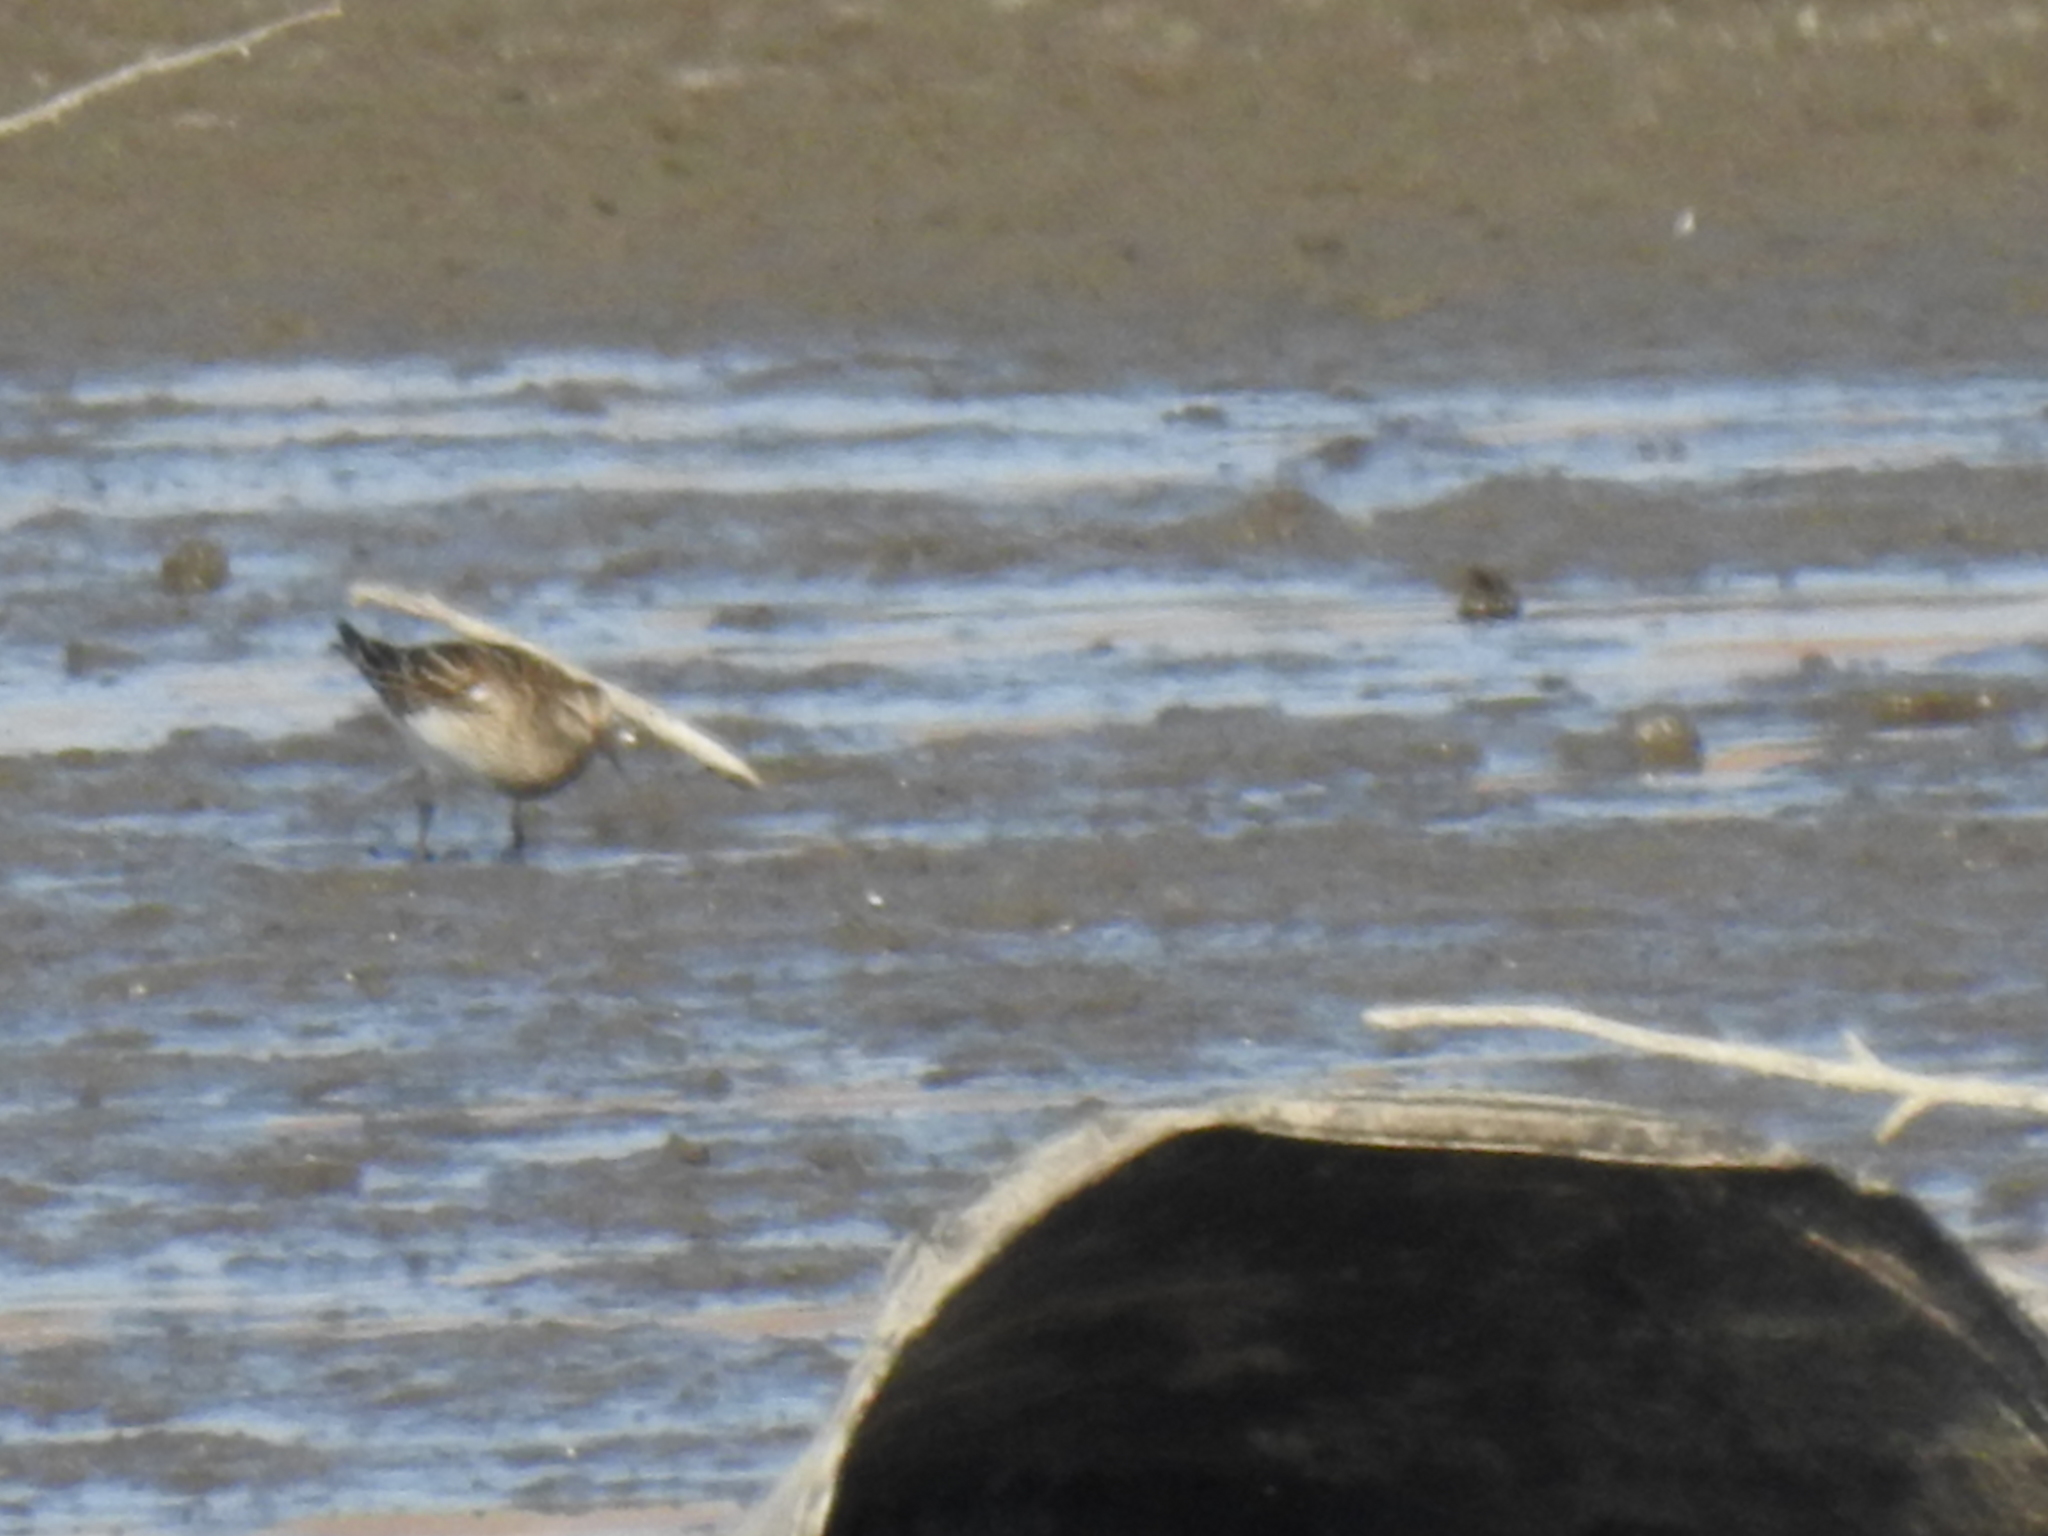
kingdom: Animalia
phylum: Chordata
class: Aves
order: Charadriiformes
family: Scolopacidae
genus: Calidris
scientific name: Calidris melanotos
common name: Pectoral sandpiper
